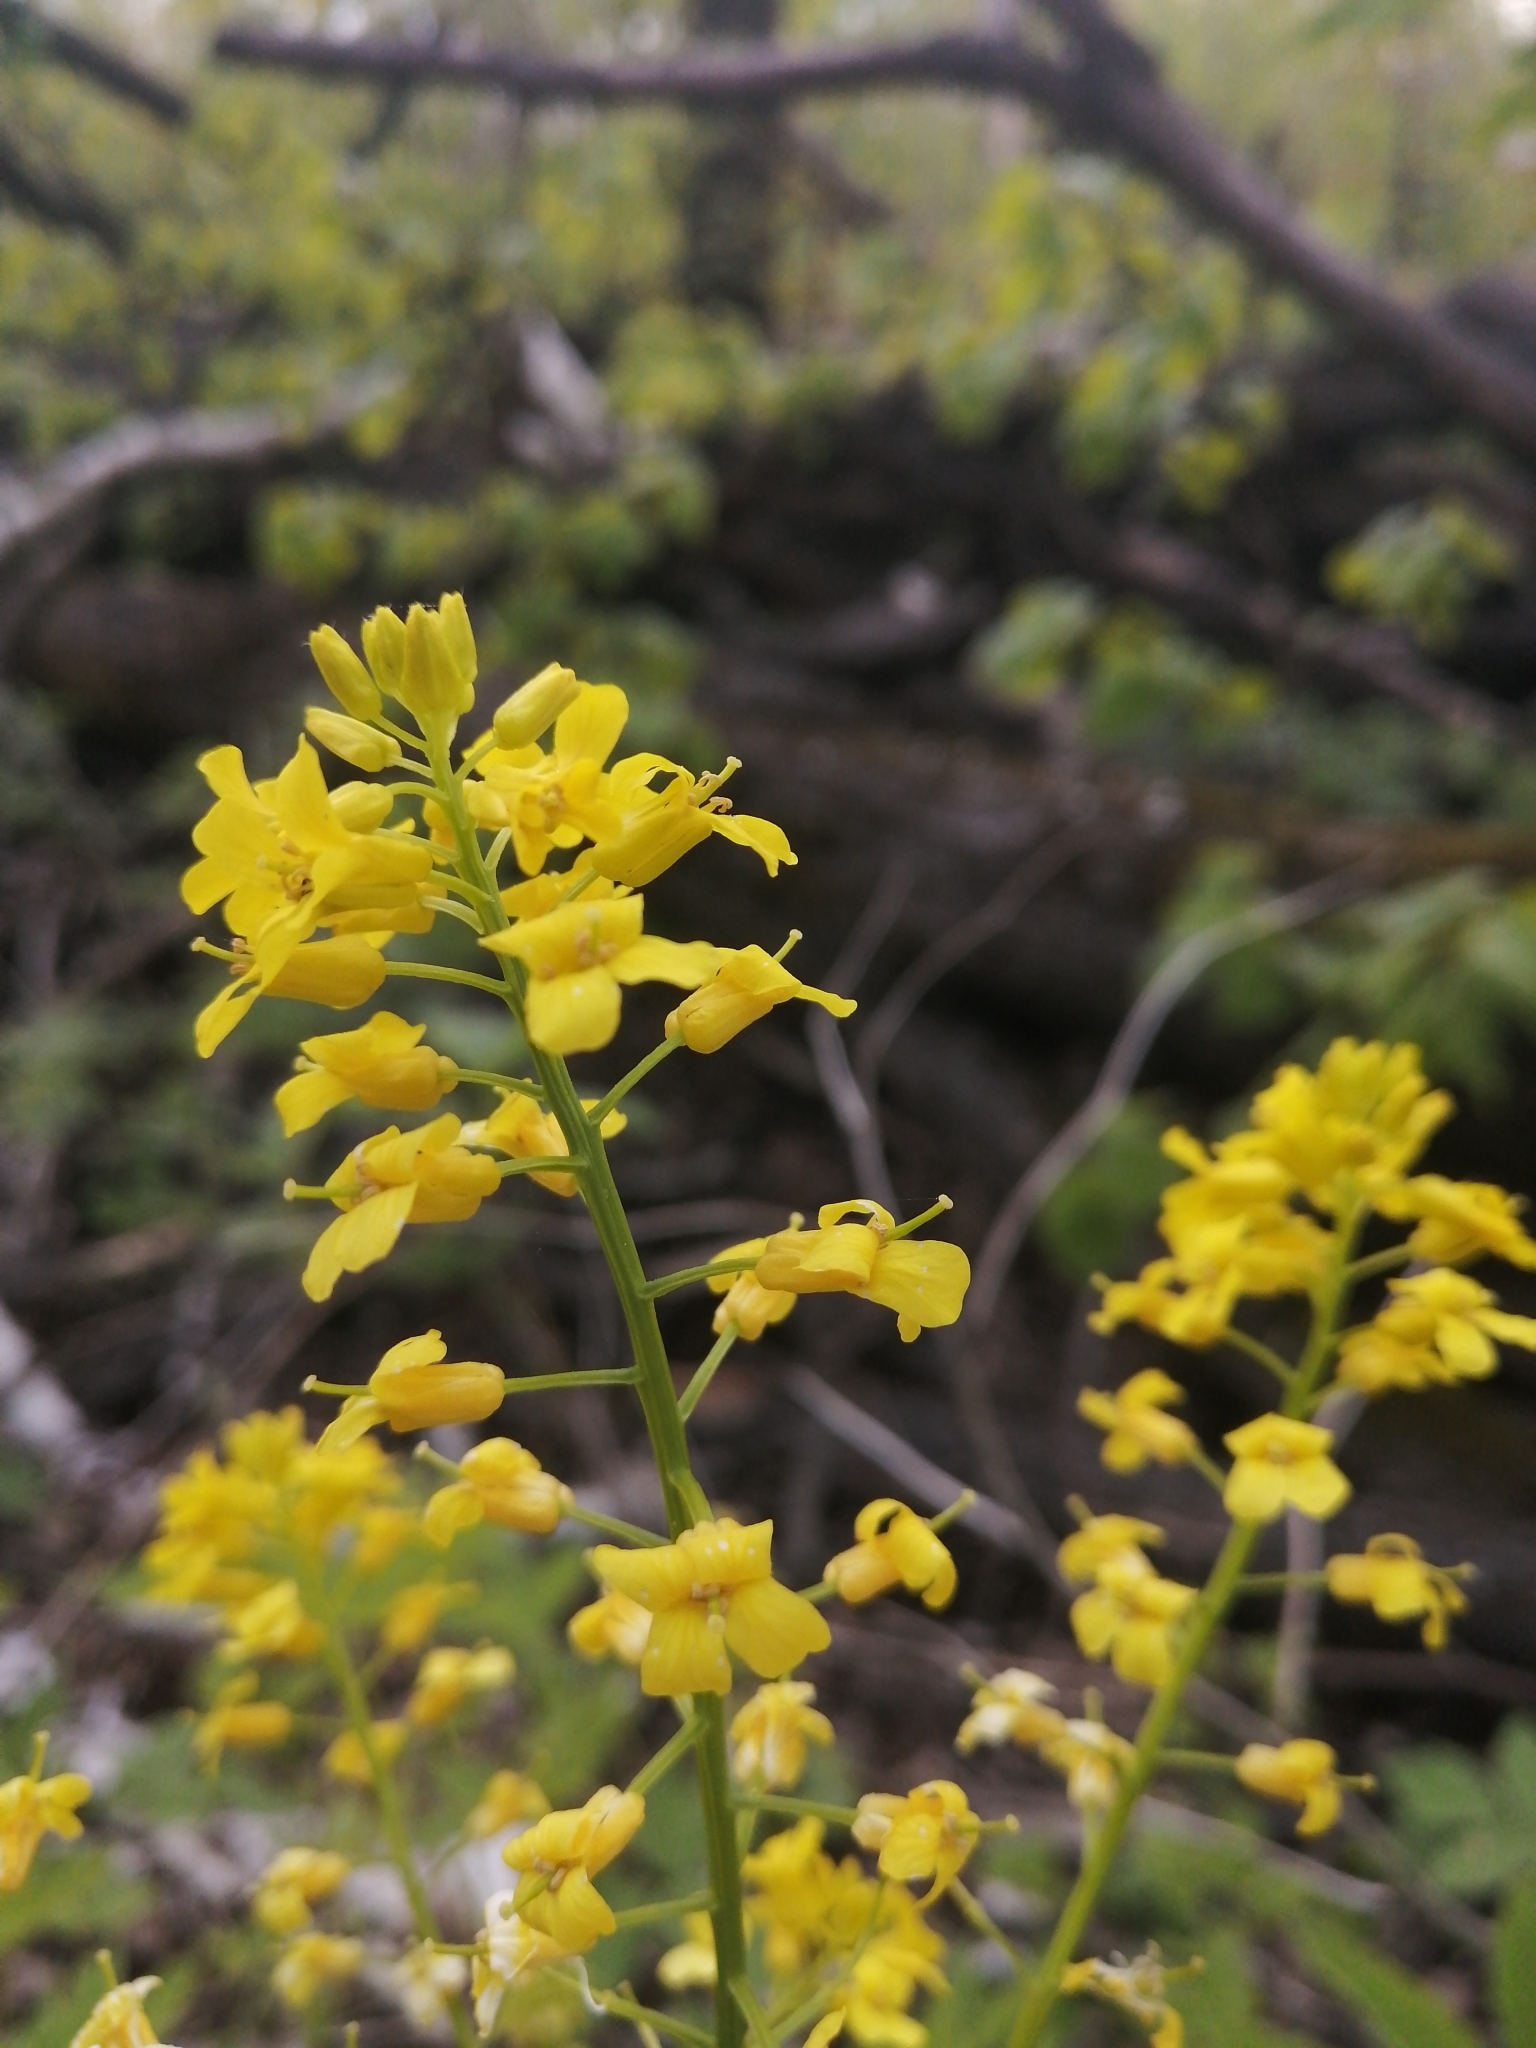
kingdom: Plantae
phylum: Tracheophyta
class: Magnoliopsida
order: Brassicales
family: Brassicaceae
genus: Barbarea
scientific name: Barbarea vulgaris
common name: Cressy-greens
